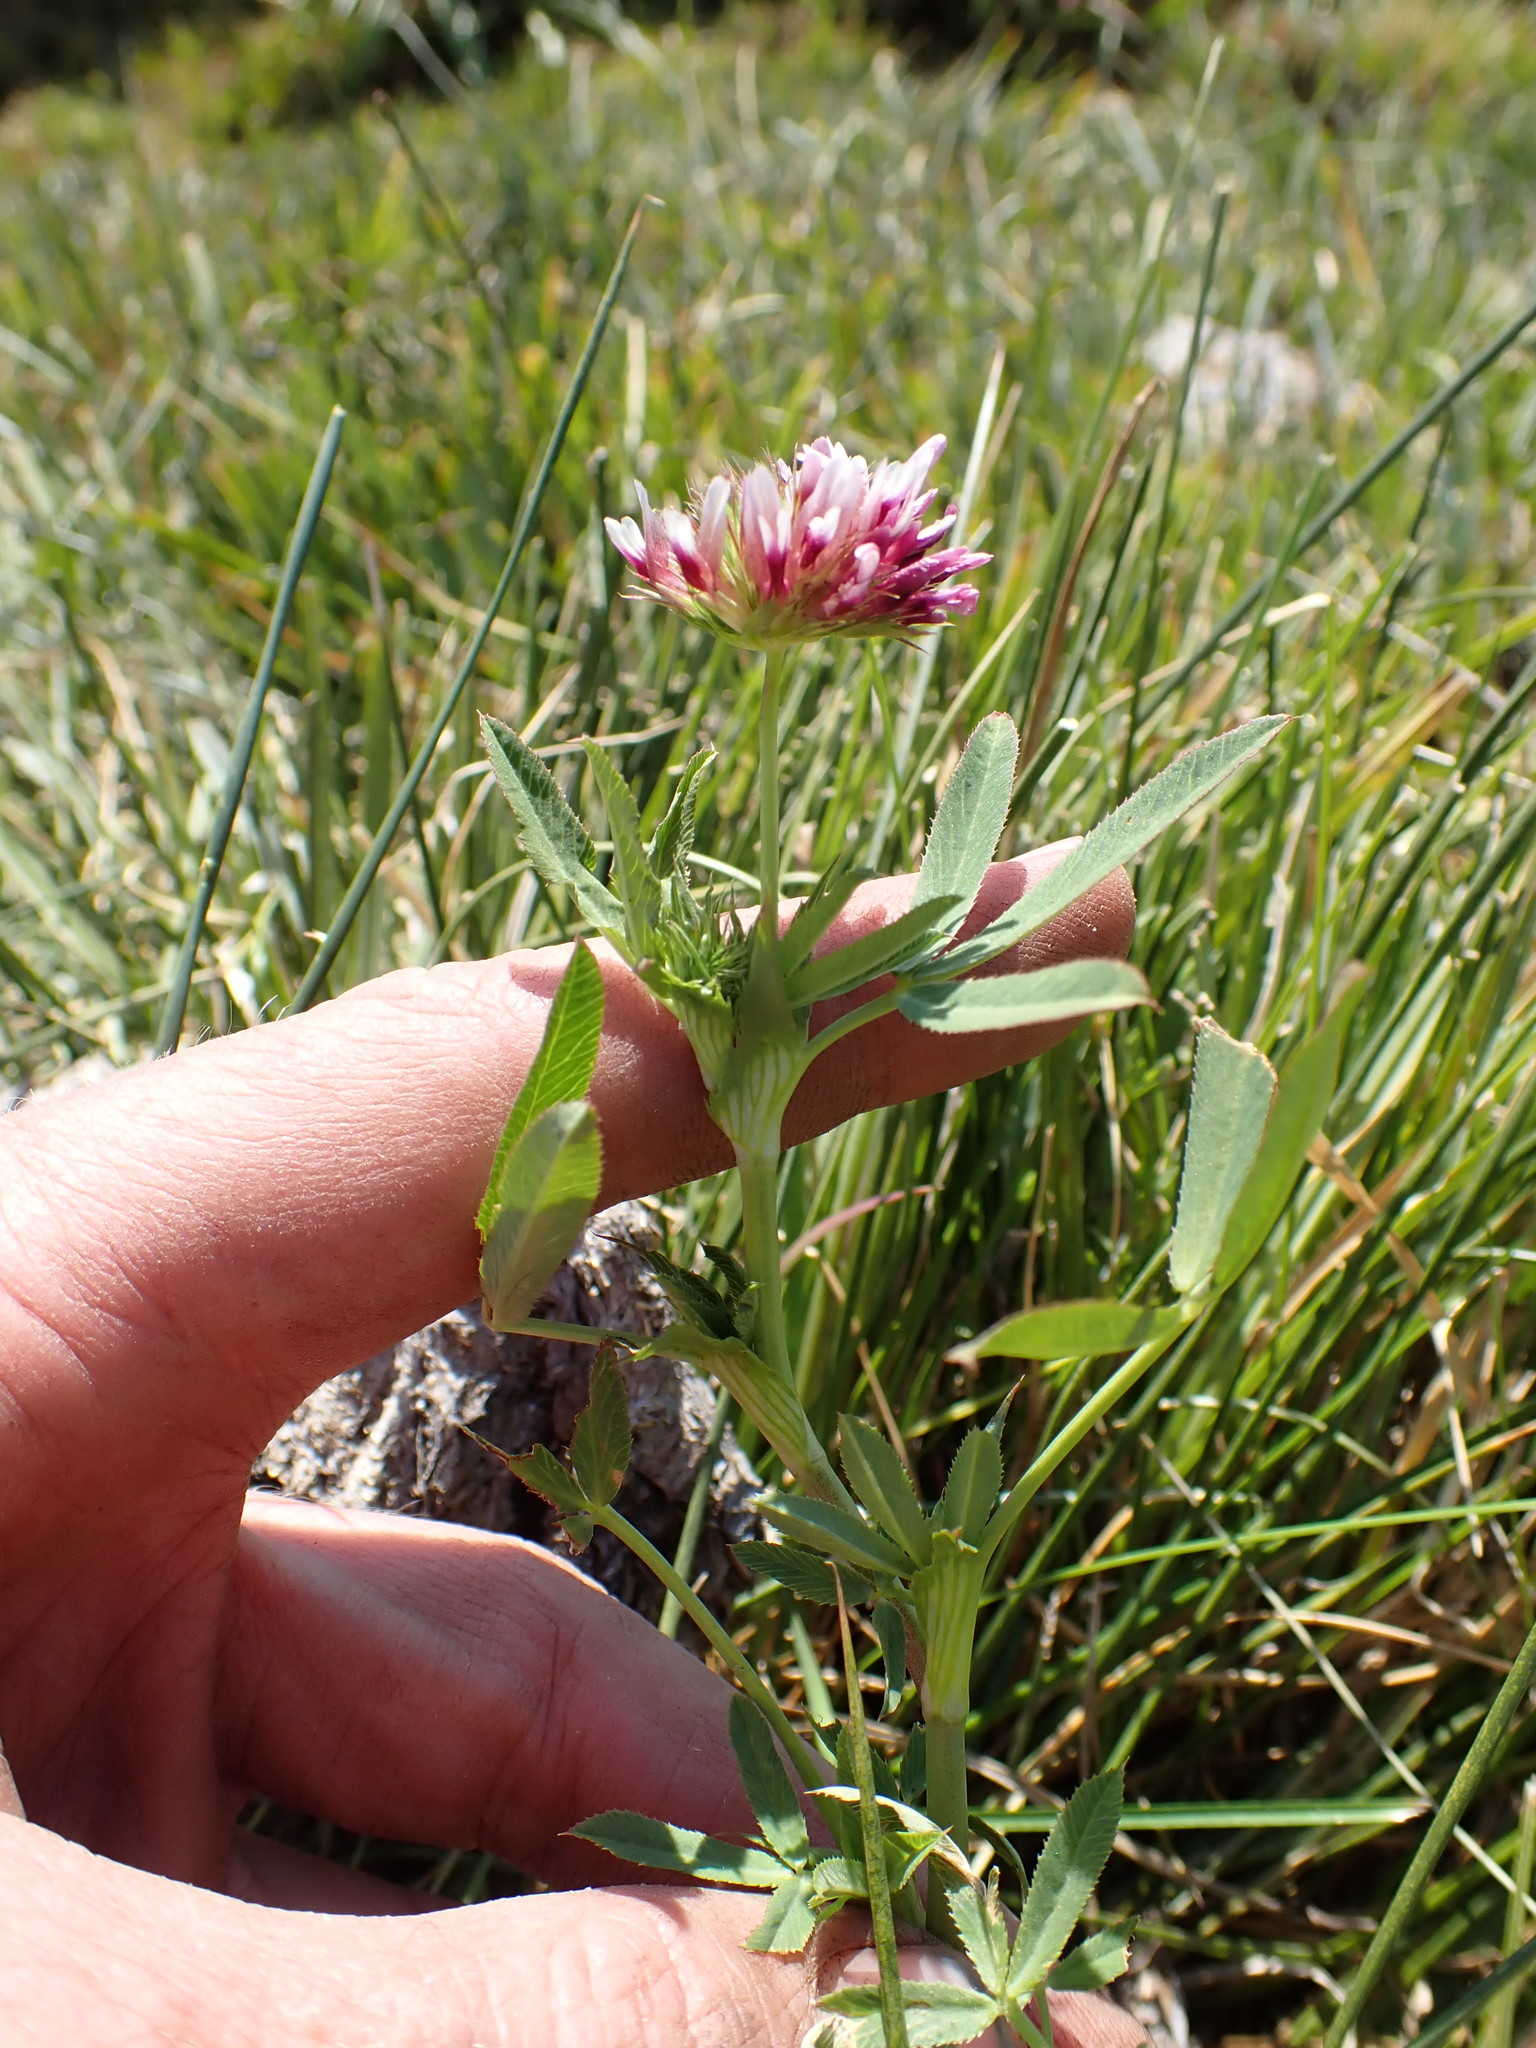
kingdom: Plantae
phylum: Tracheophyta
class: Magnoliopsida
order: Fabales
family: Fabaceae
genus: Trifolium
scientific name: Trifolium wormskioldii
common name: Springbank clover
